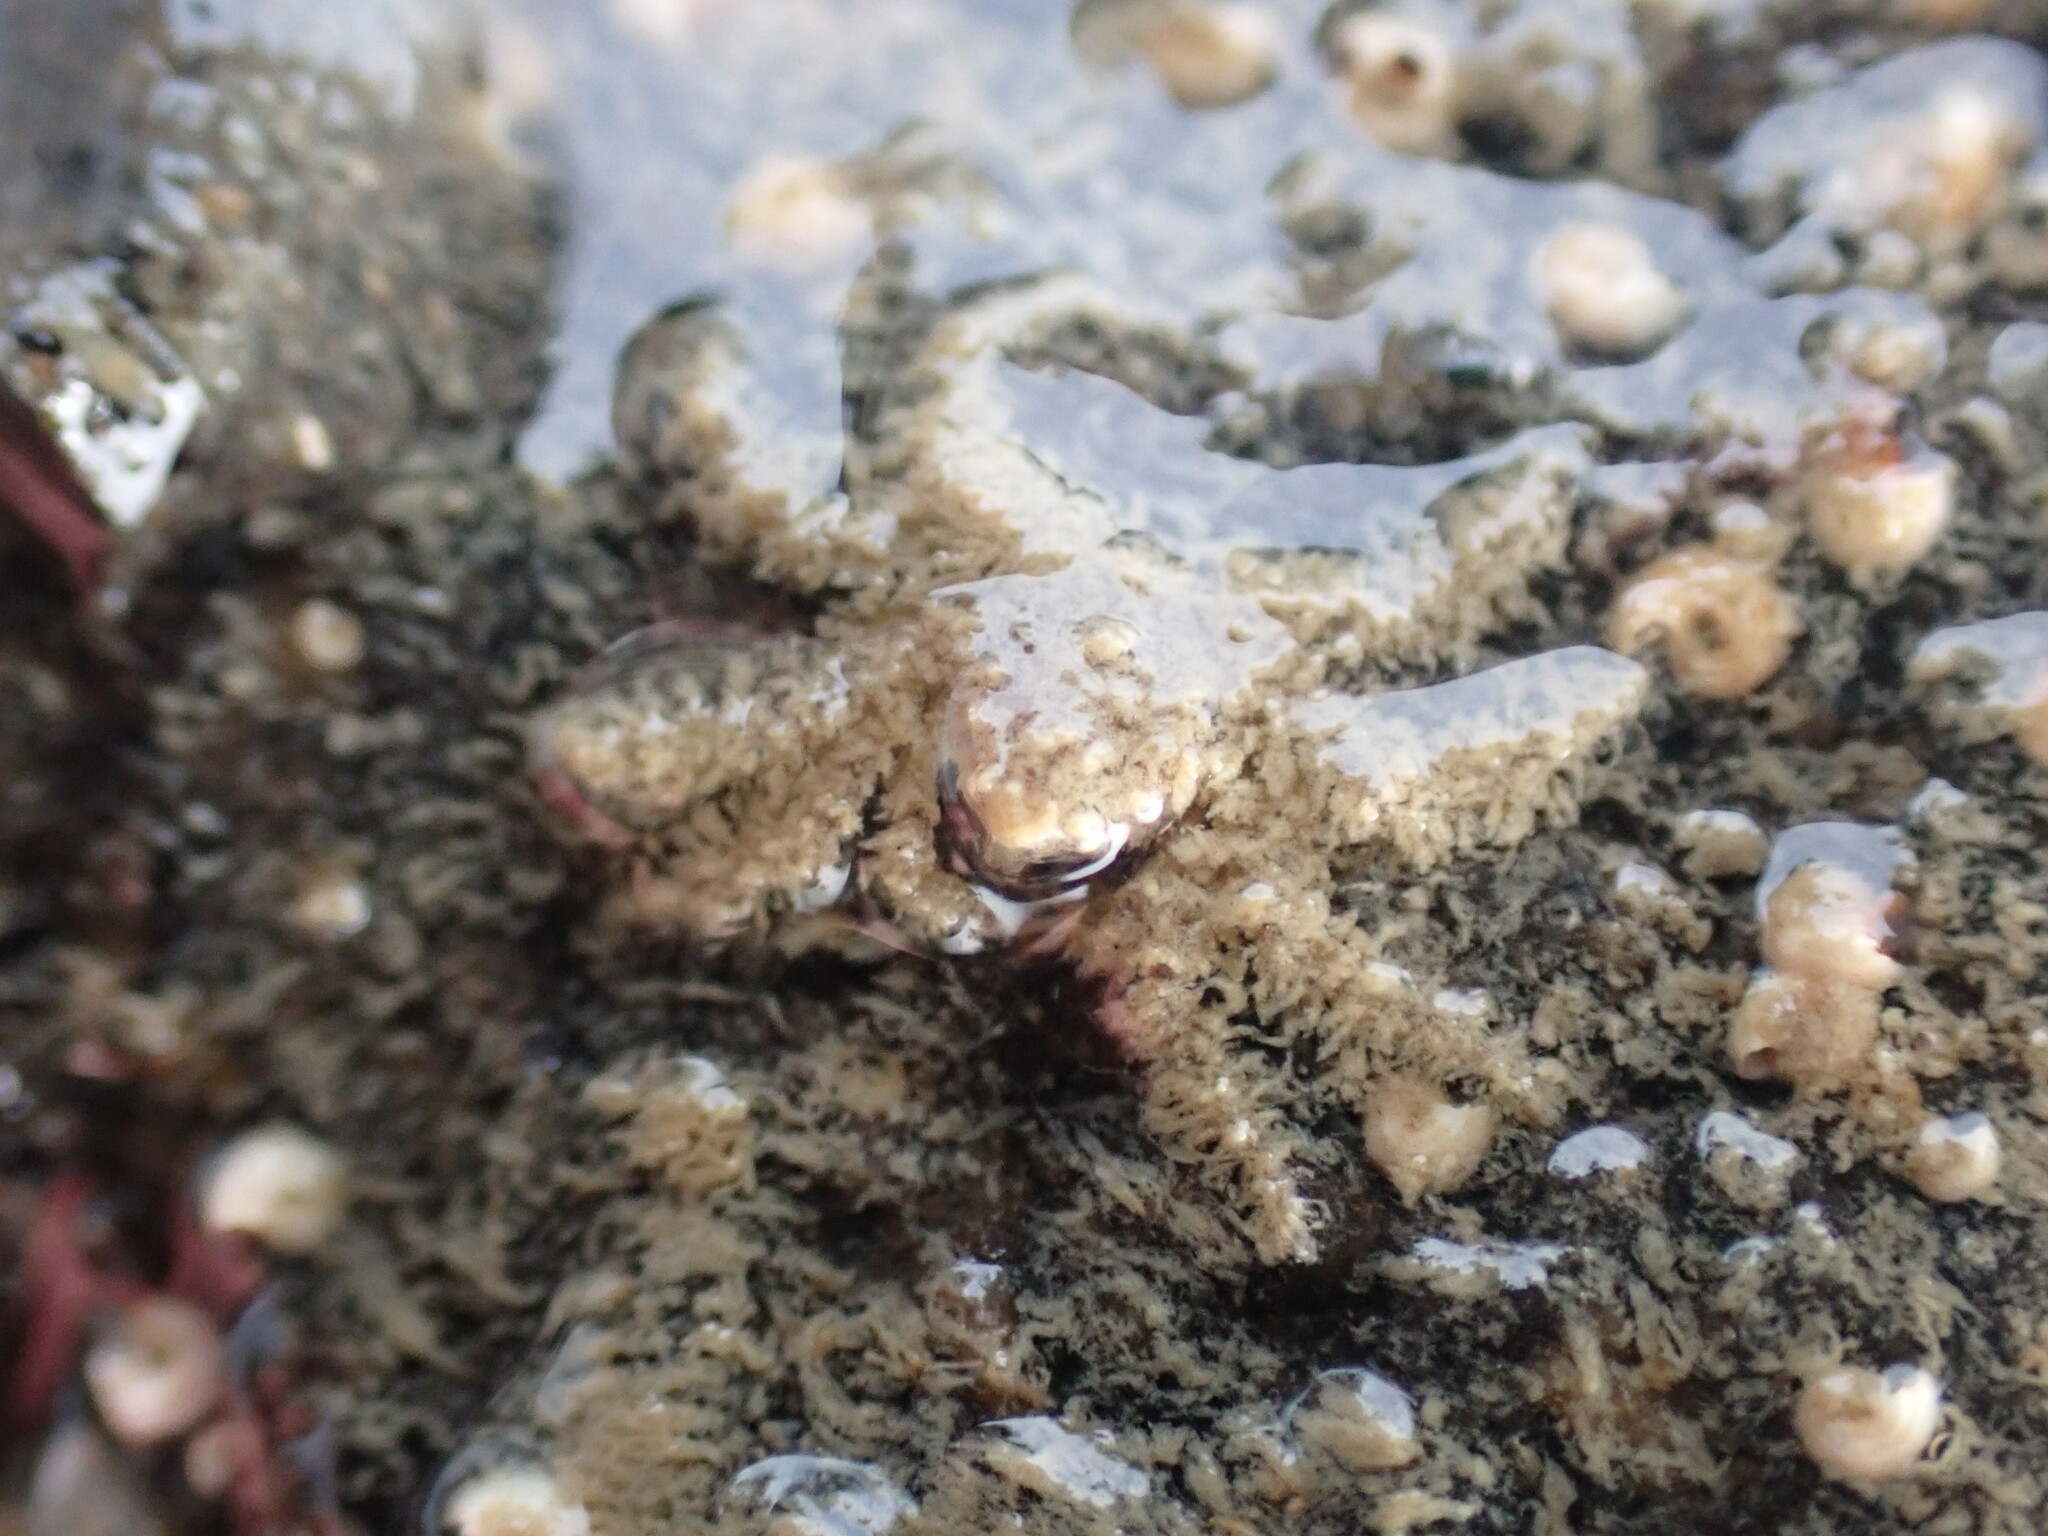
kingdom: Animalia
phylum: Arthropoda
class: Malacostraca
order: Decapoda
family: Hymenosomatidae
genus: Neohymenicus
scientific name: Neohymenicus pubescens
